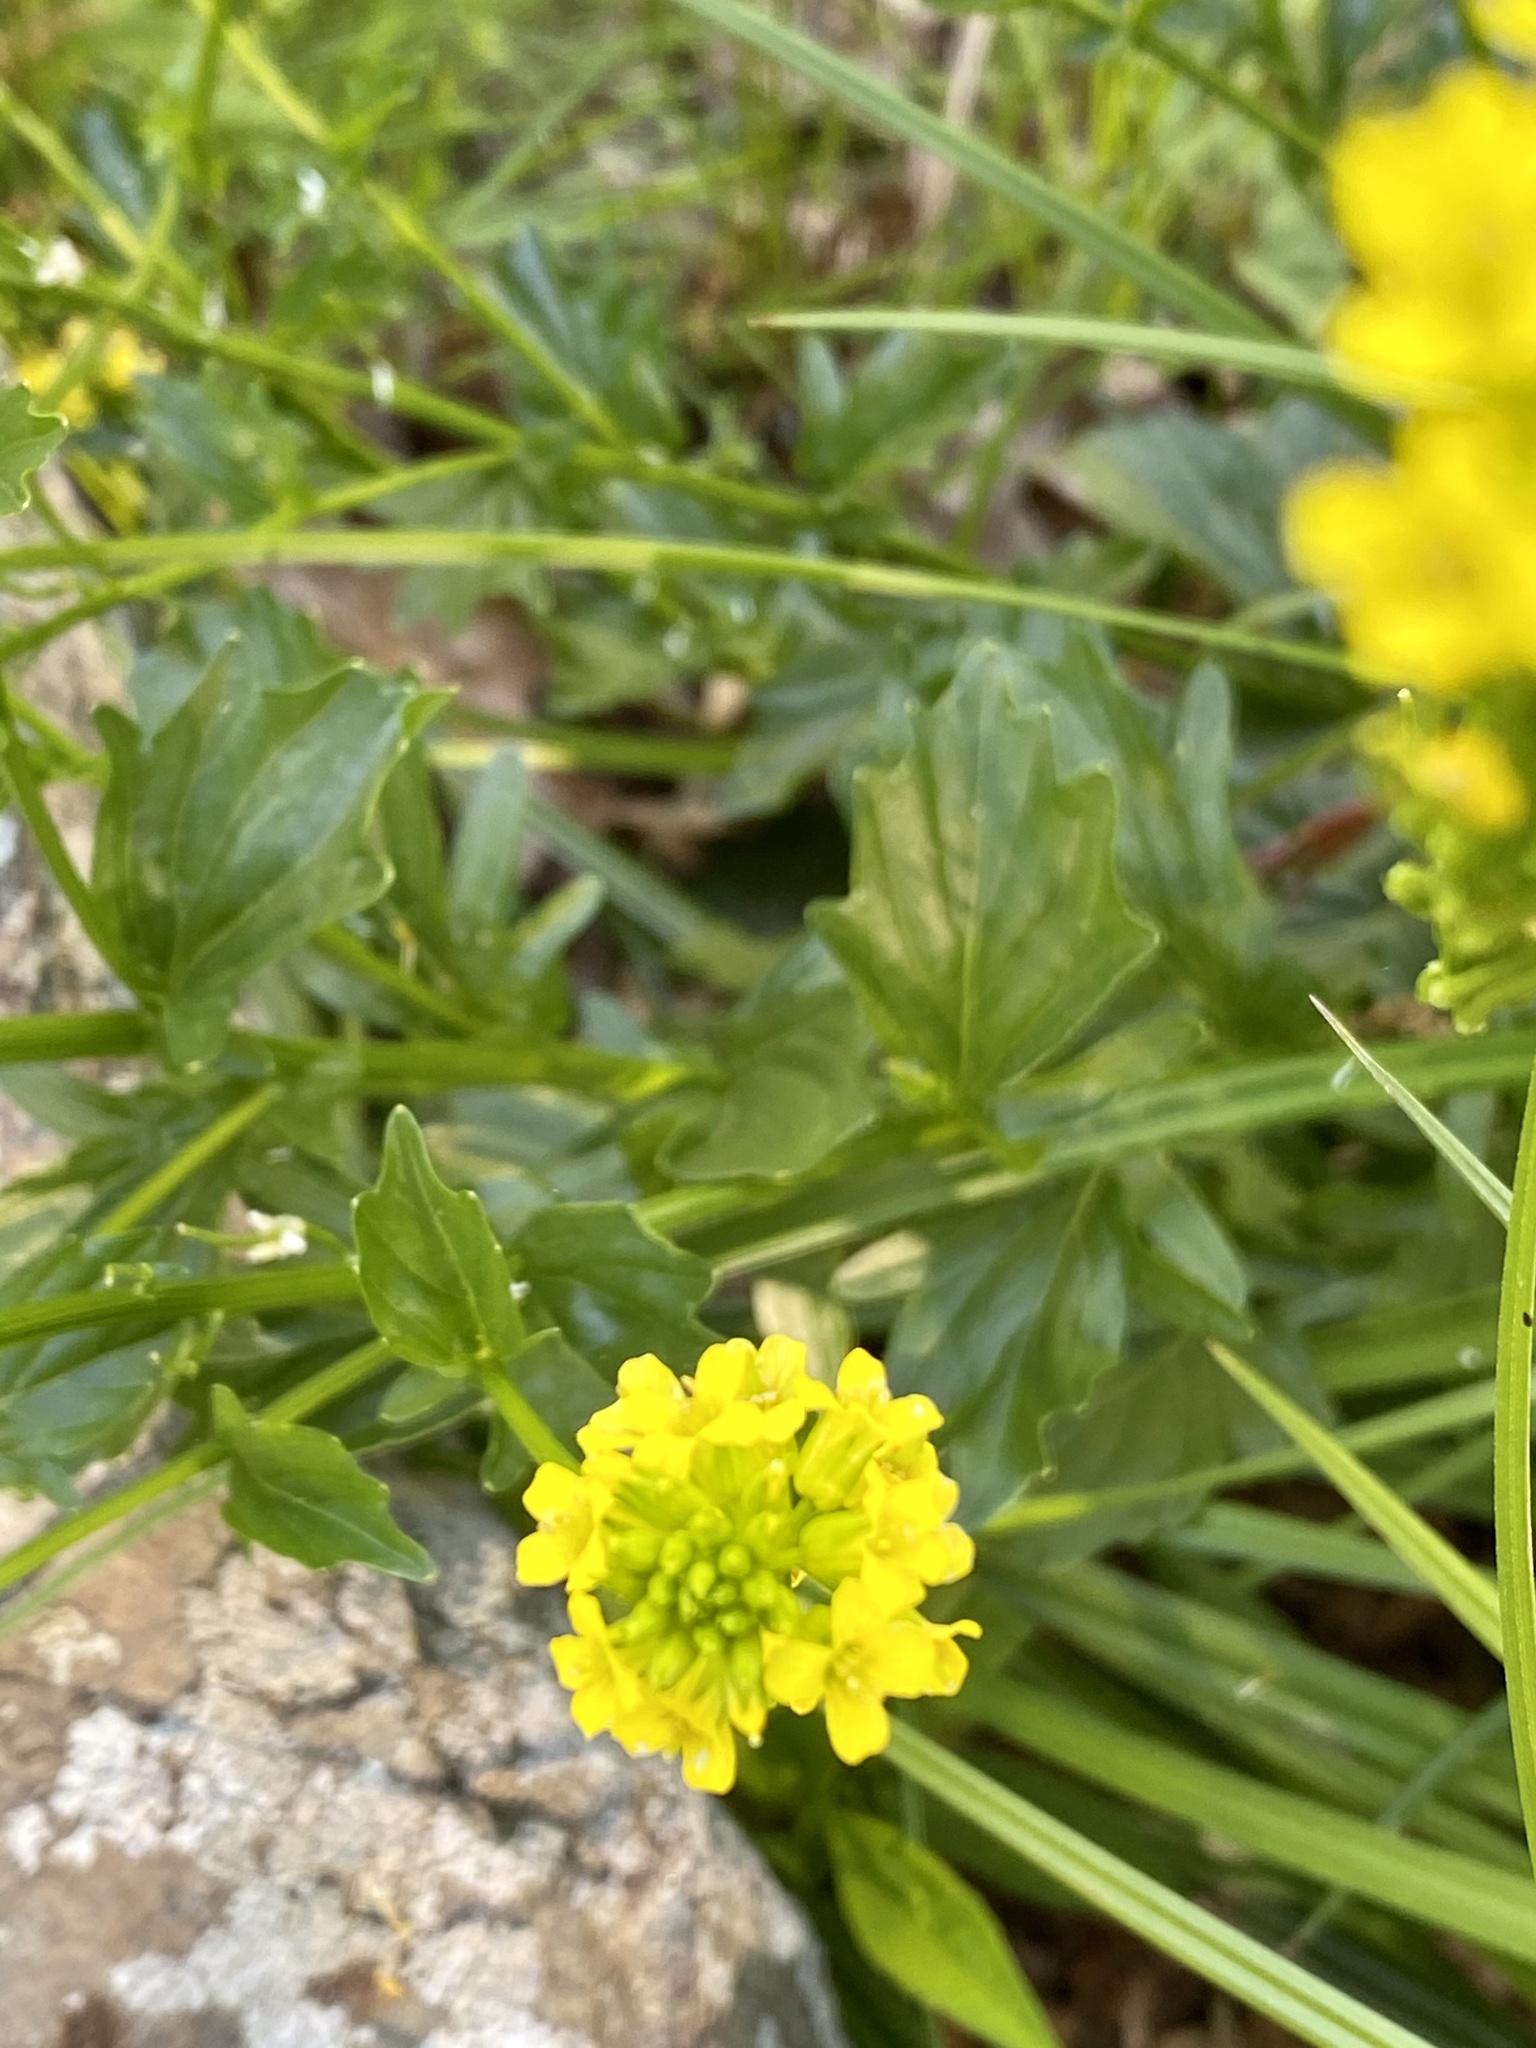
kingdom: Plantae
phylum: Tracheophyta
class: Magnoliopsida
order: Brassicales
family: Brassicaceae
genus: Barbarea
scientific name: Barbarea vulgaris
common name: Cressy-greens
